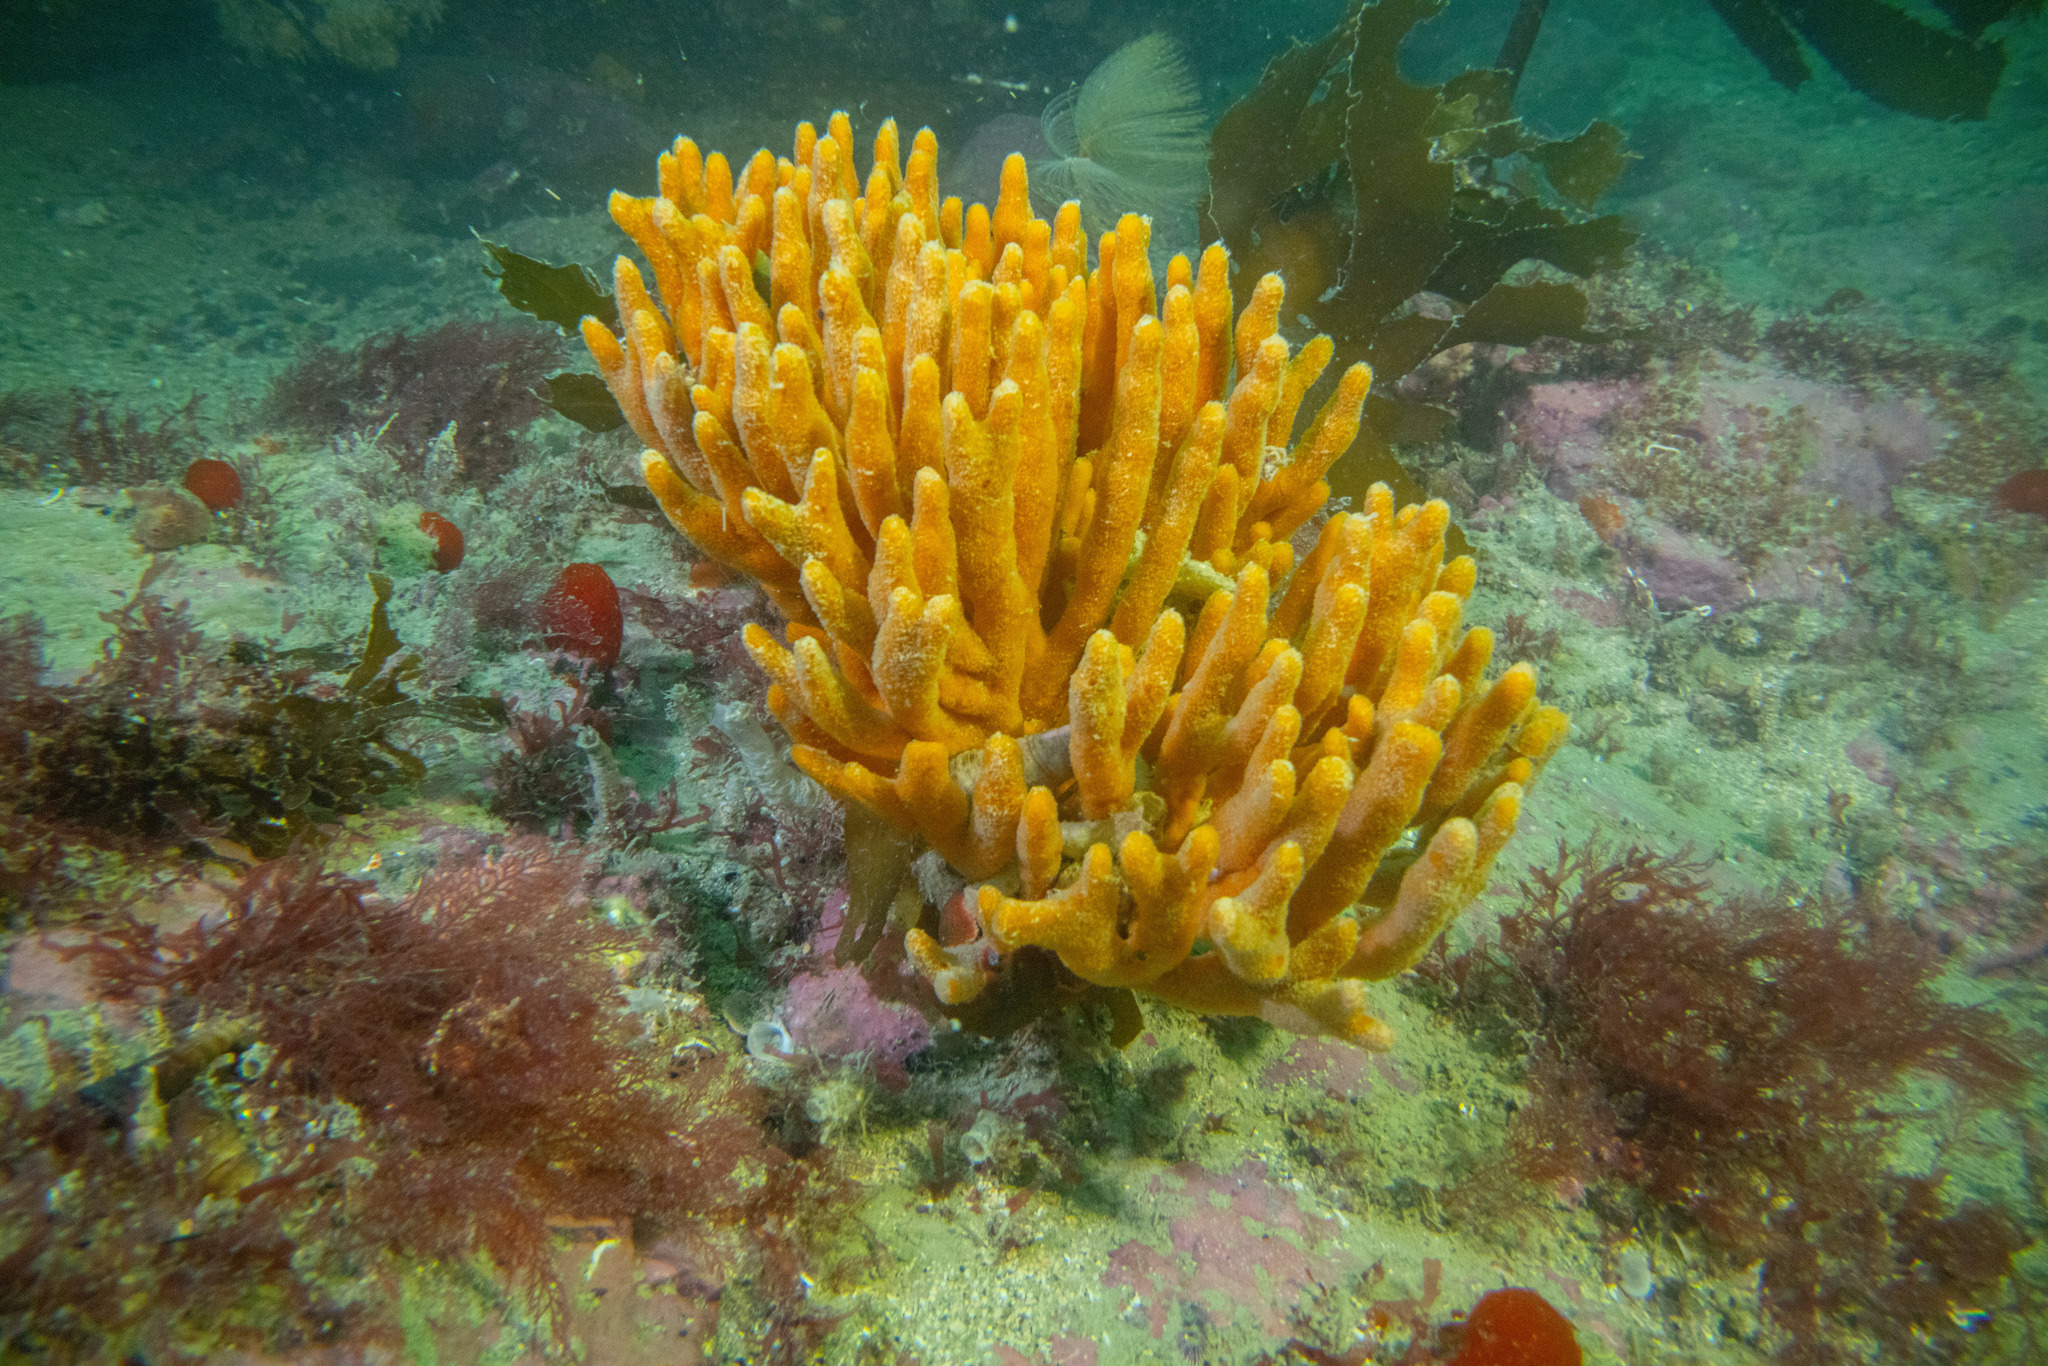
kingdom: Animalia
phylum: Porifera
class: Demospongiae
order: Axinellida
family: Raspailiidae
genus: Raspailia
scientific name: Raspailia topsenti
